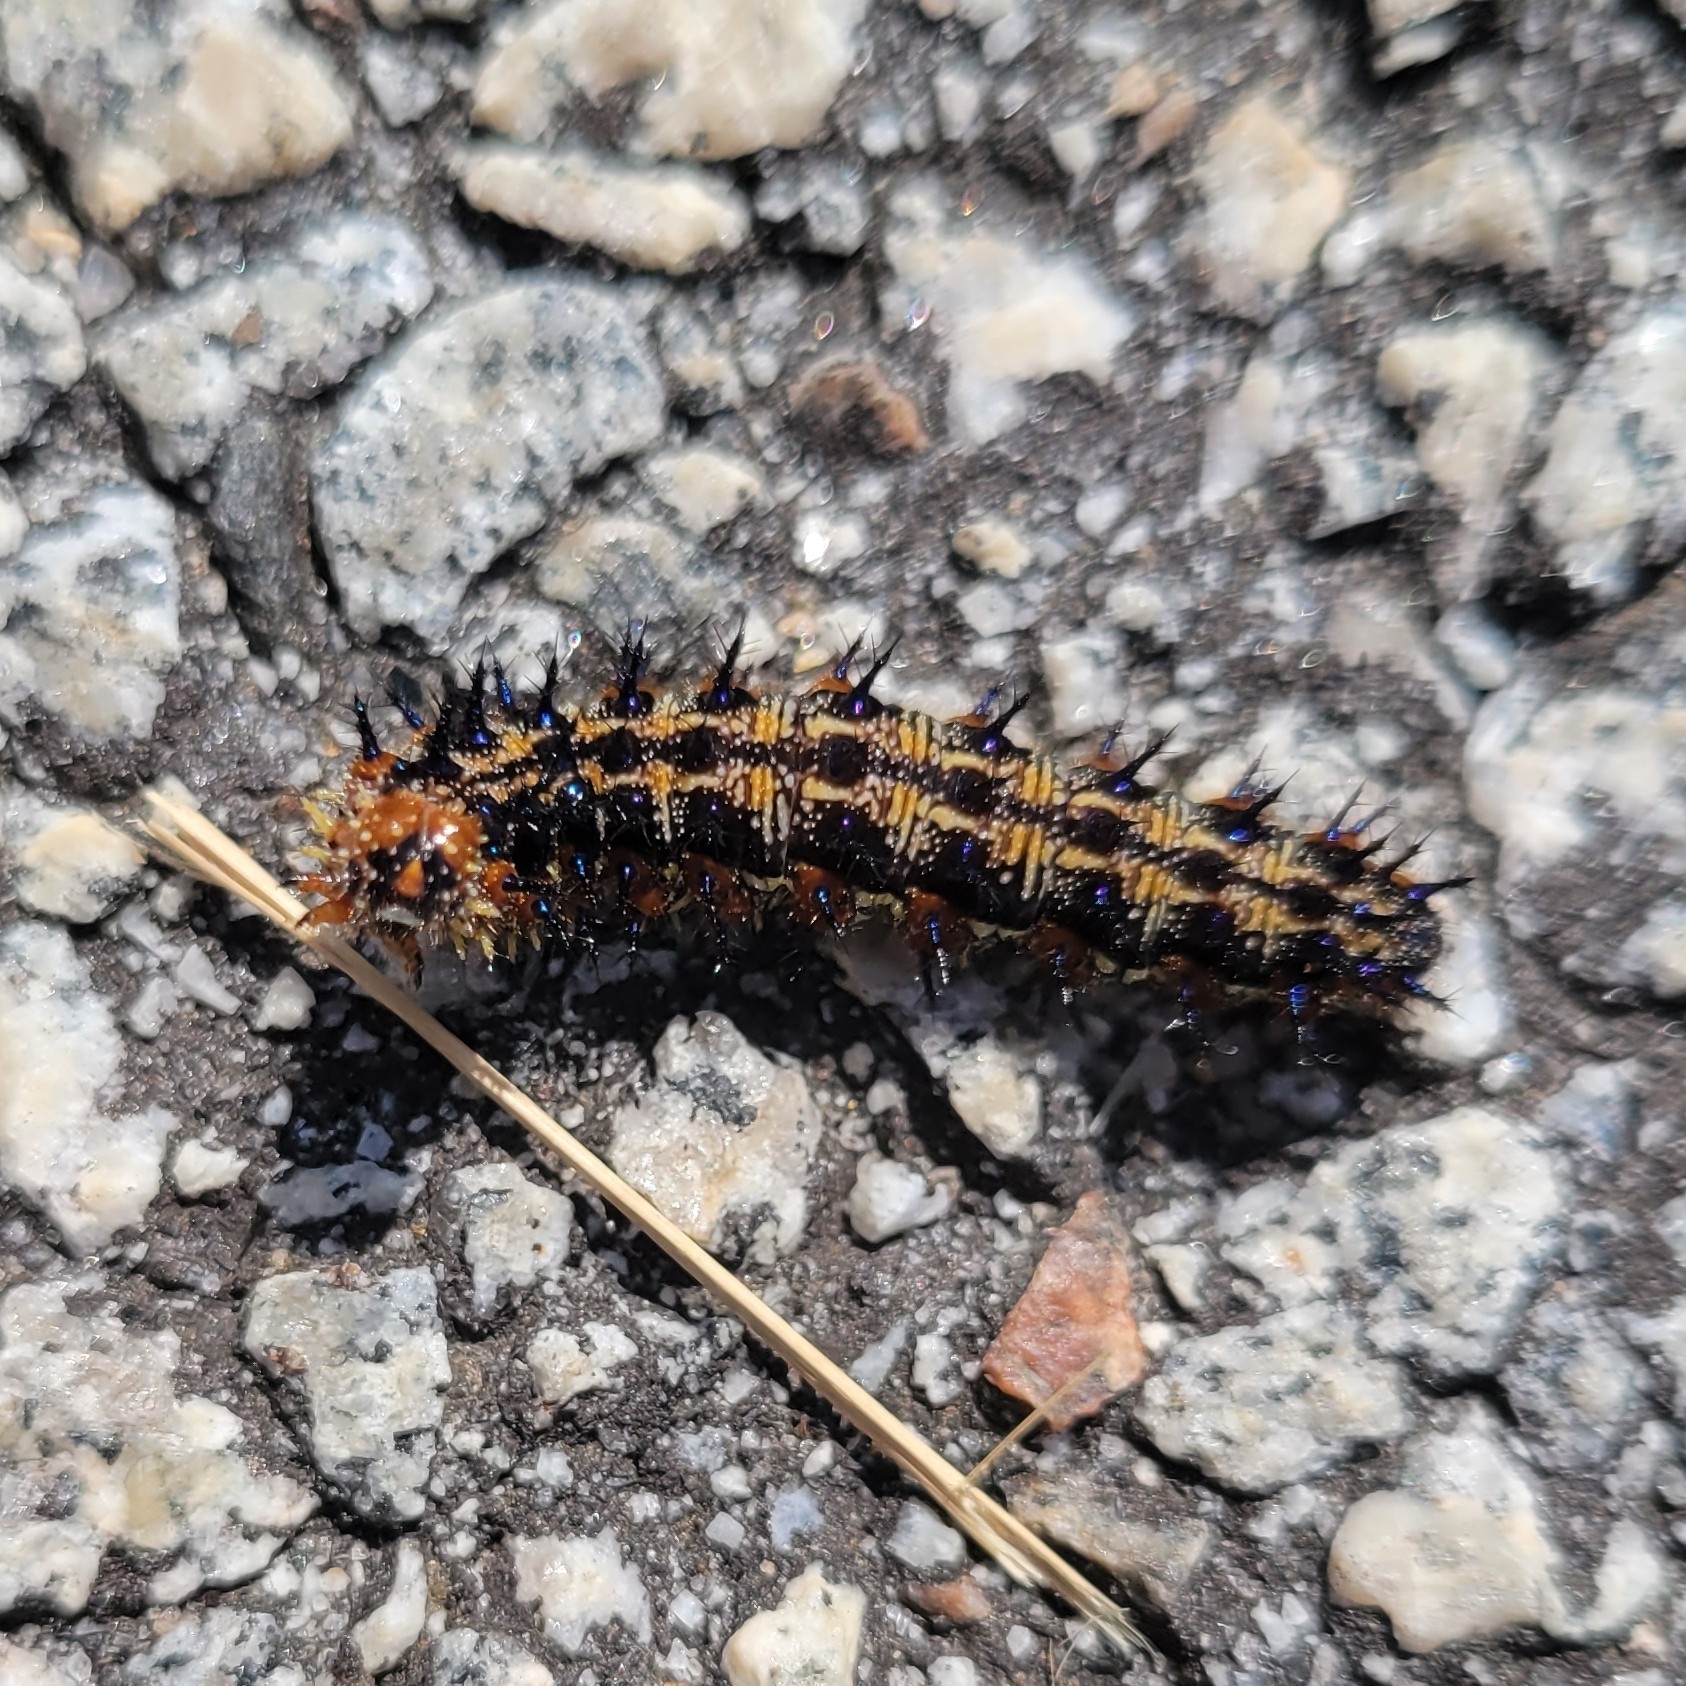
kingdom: Animalia
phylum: Arthropoda
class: Insecta
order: Lepidoptera
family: Nymphalidae
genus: Junonia
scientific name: Junonia coenia
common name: Common buckeye
